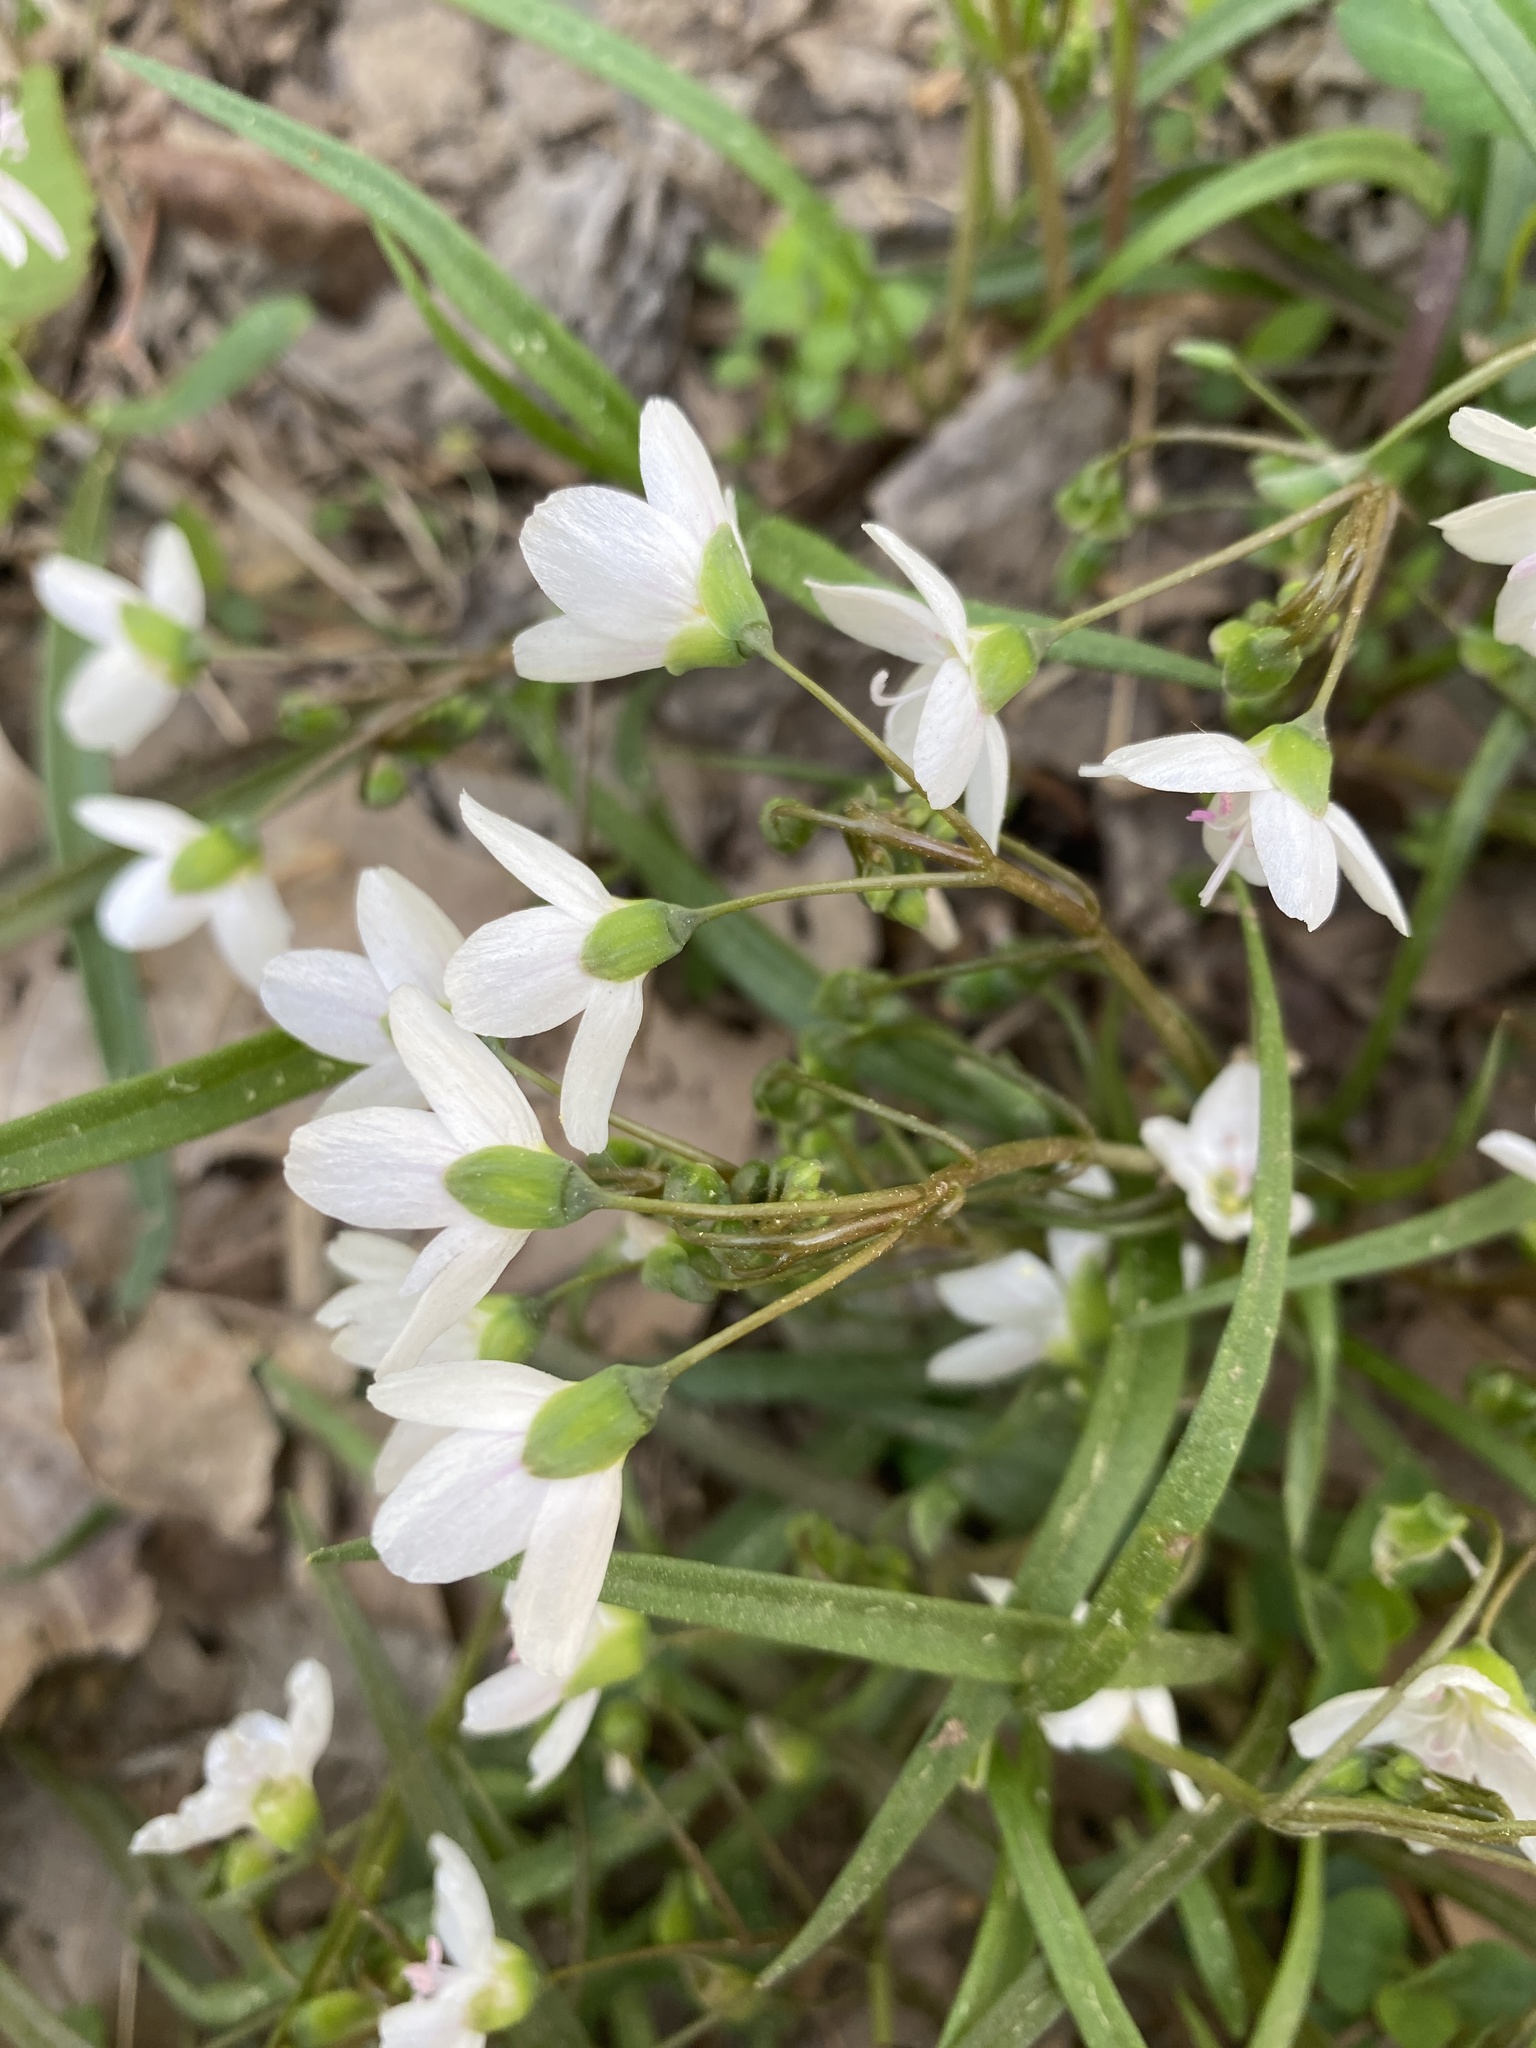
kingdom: Plantae
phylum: Tracheophyta
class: Magnoliopsida
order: Caryophyllales
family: Montiaceae
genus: Claytonia
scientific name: Claytonia virginica
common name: Virginia springbeauty
